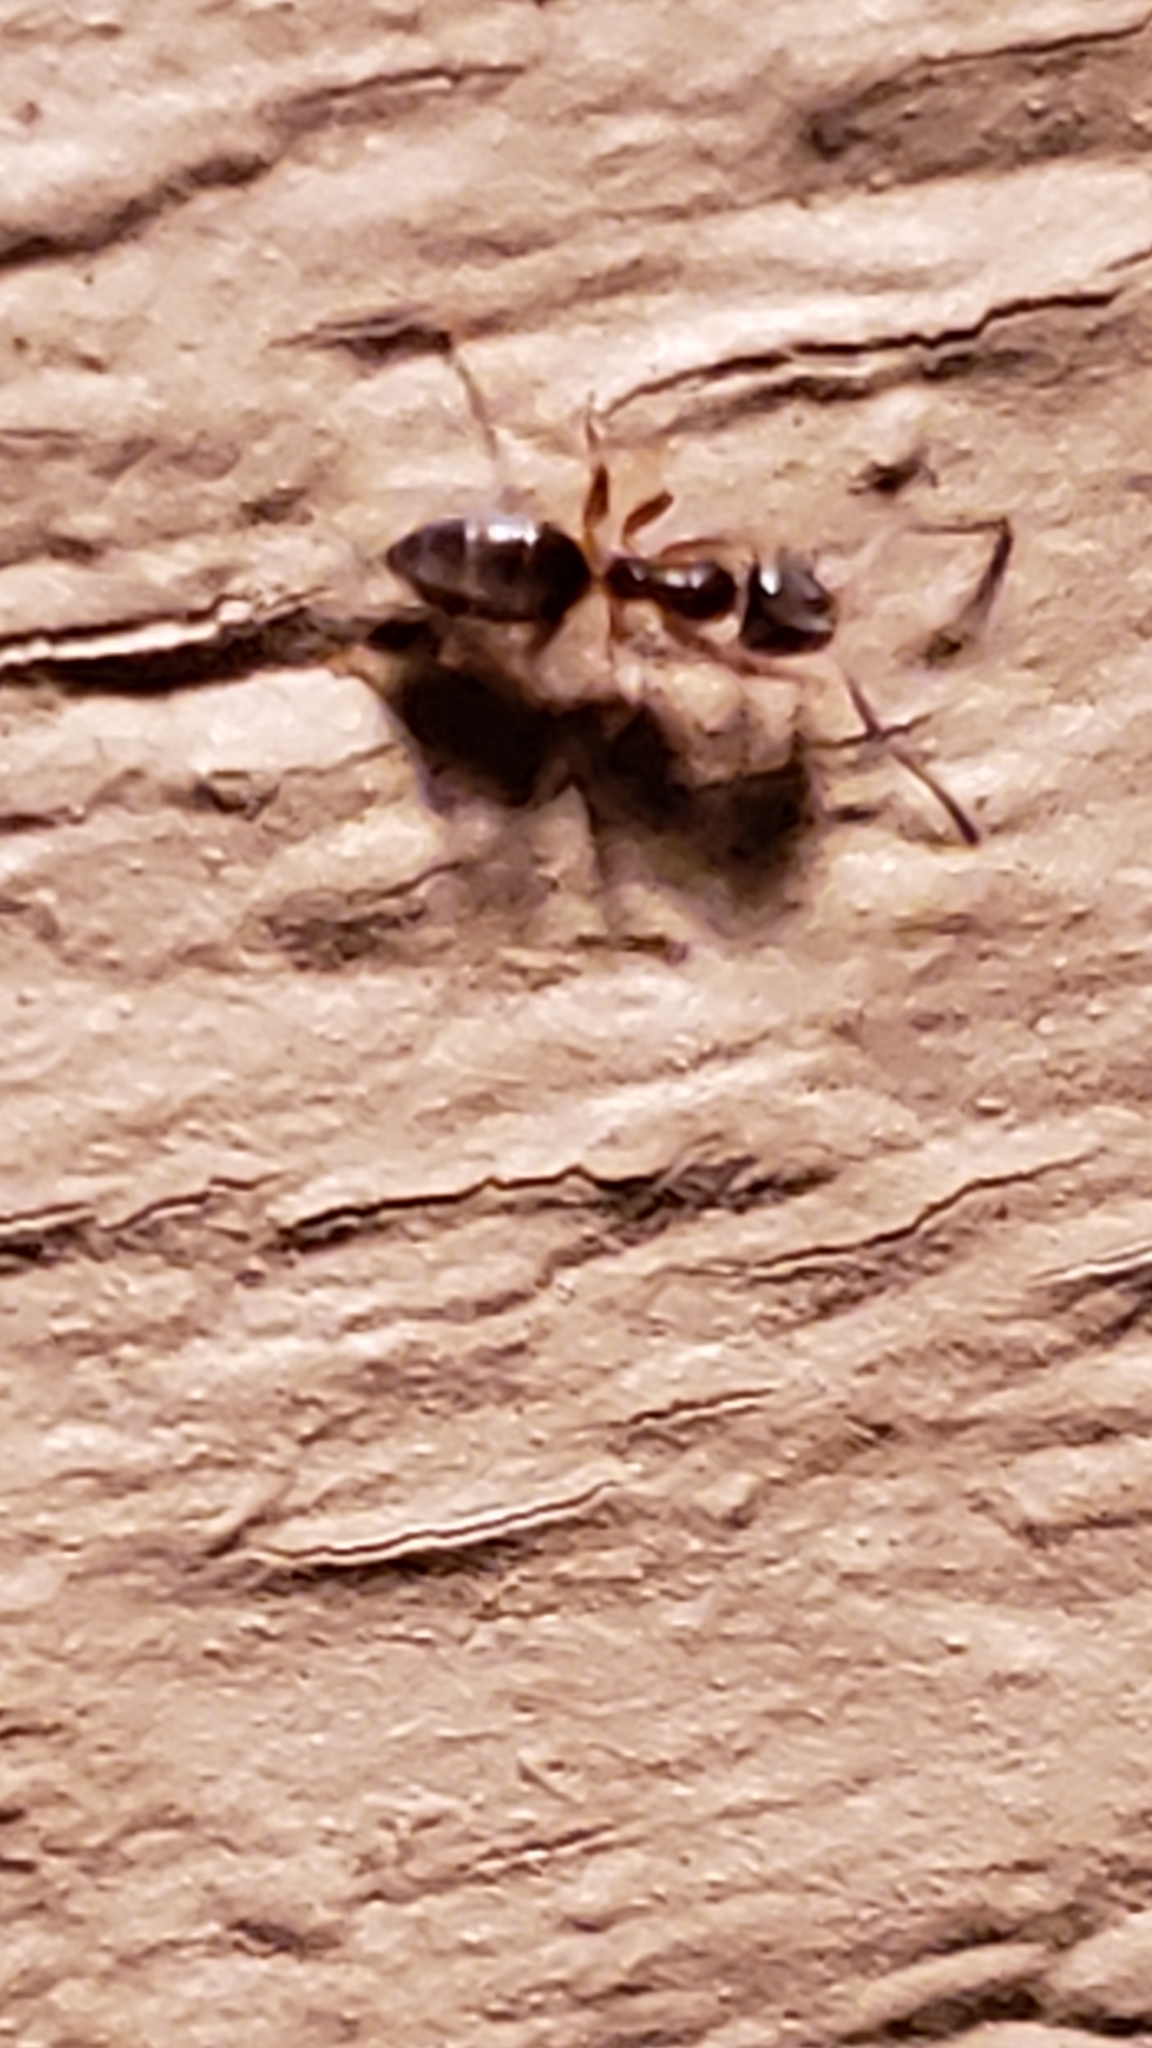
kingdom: Animalia
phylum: Arthropoda
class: Insecta
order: Hymenoptera
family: Formicidae
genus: Tapinoma
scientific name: Tapinoma sessile
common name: Odorous house ant
